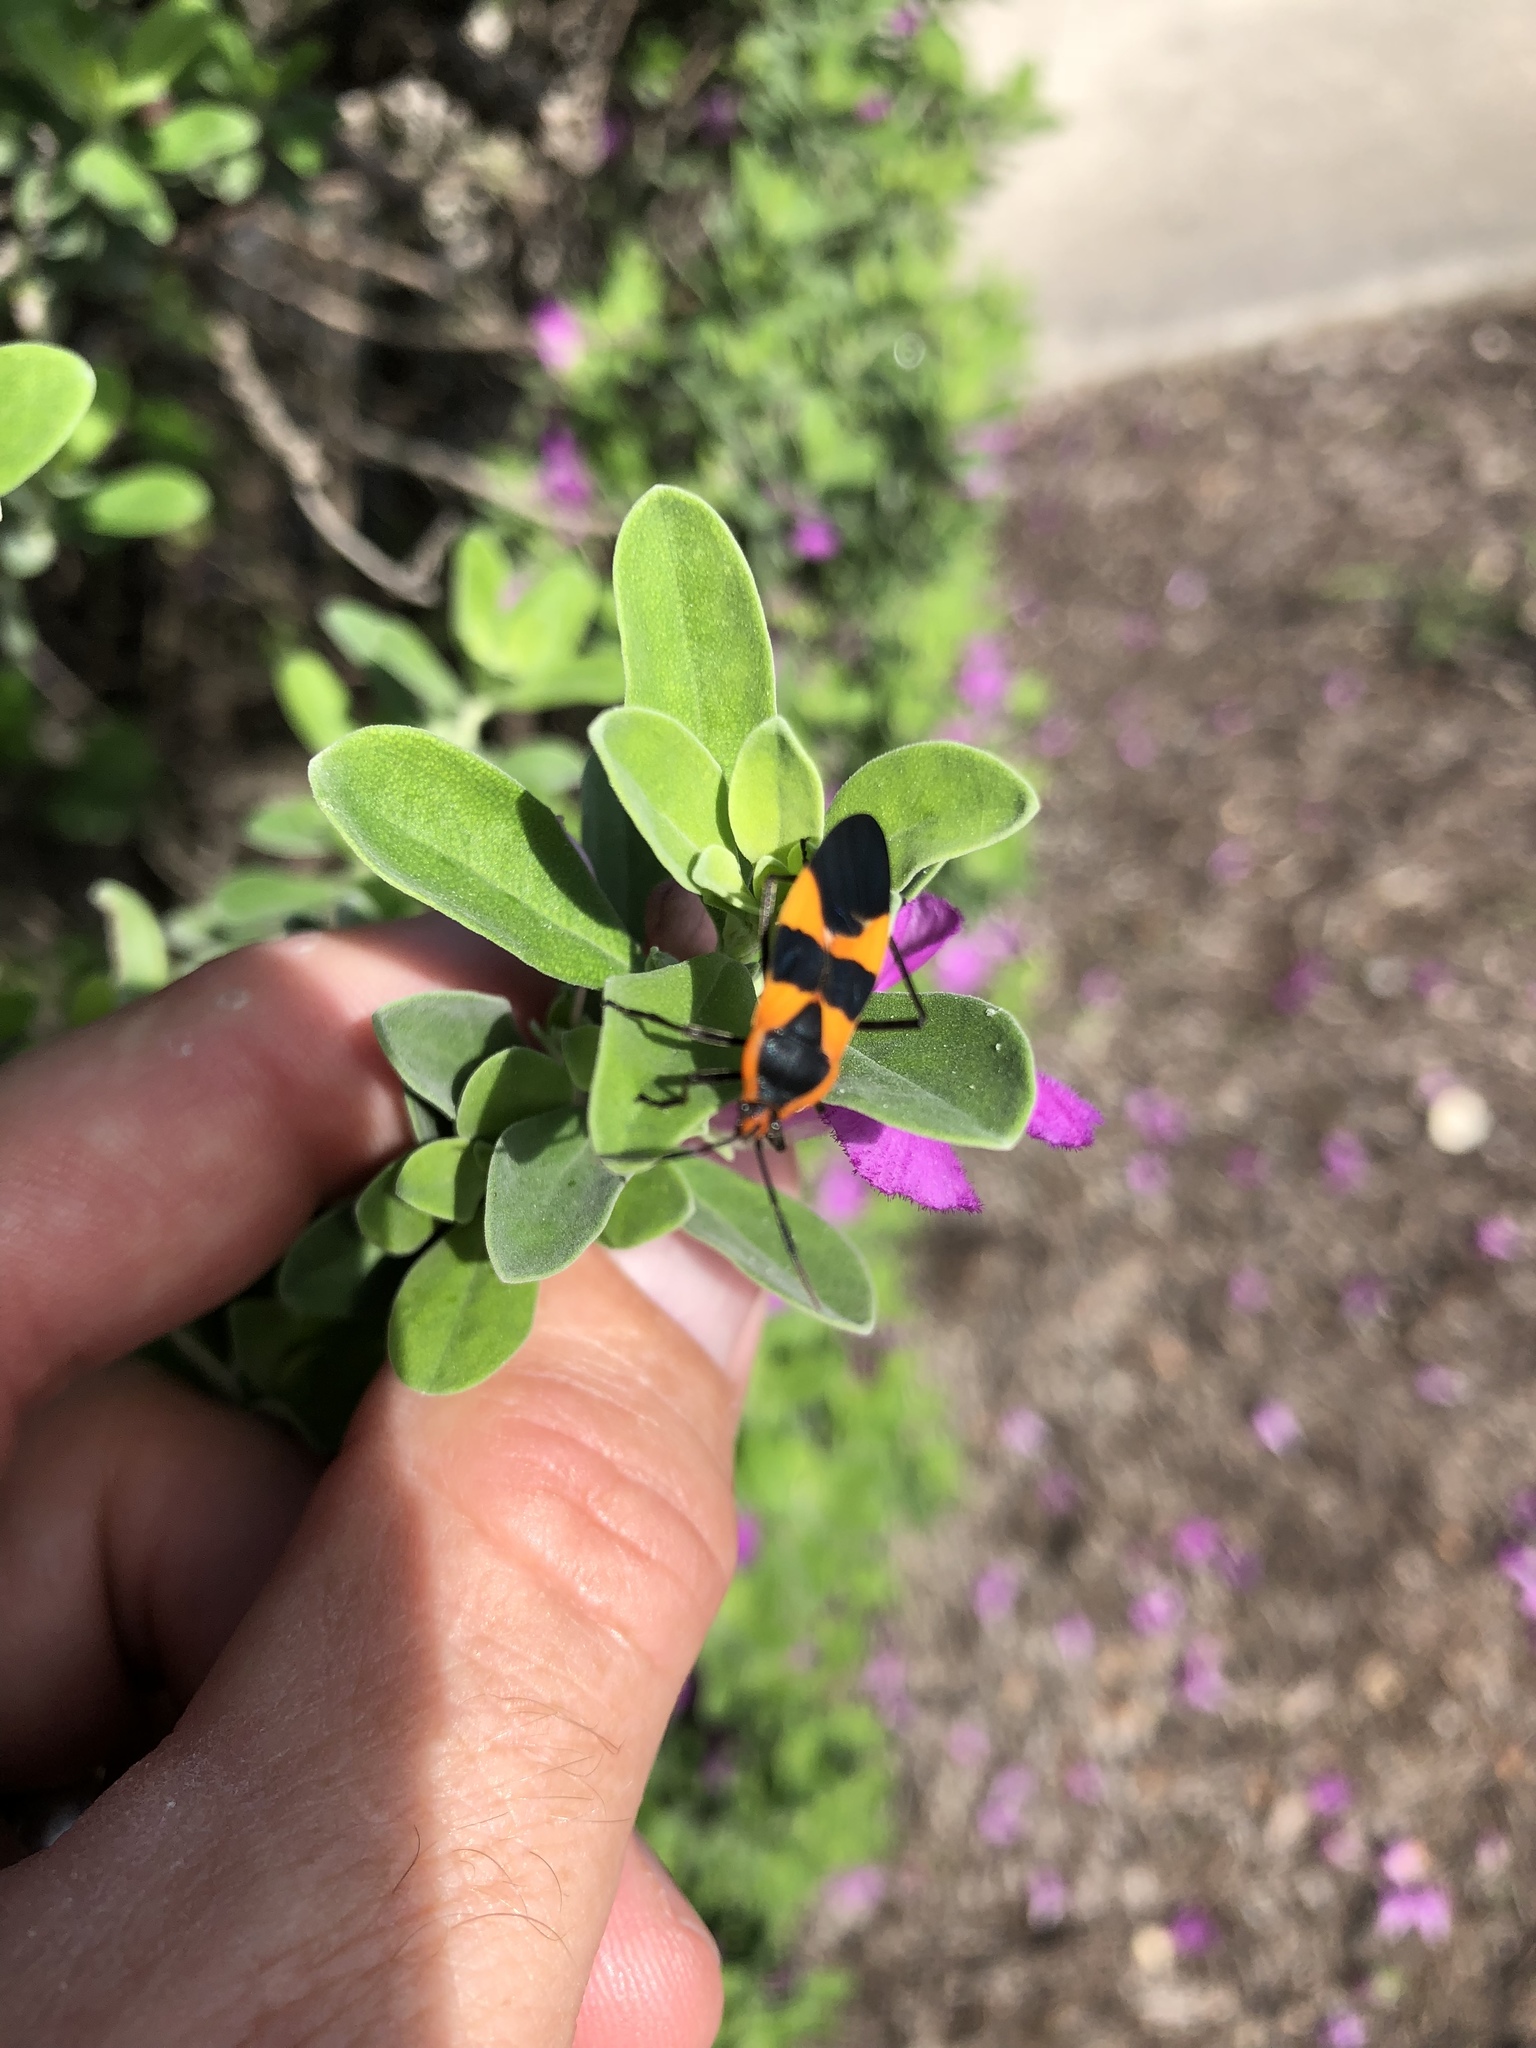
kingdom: Animalia
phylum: Arthropoda
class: Insecta
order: Hemiptera
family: Lygaeidae
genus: Oncopeltus
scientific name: Oncopeltus fasciatus
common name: Large milkweed bug
